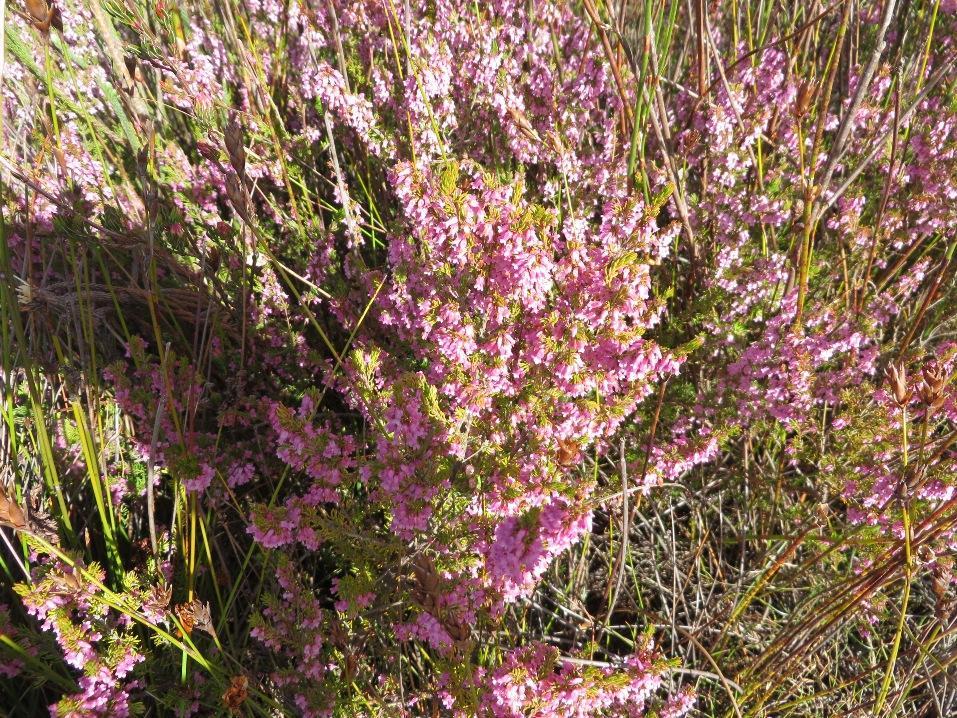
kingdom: Plantae
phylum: Tracheophyta
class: Magnoliopsida
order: Ericales
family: Ericaceae
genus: Erica
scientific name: Erica intervallaris
